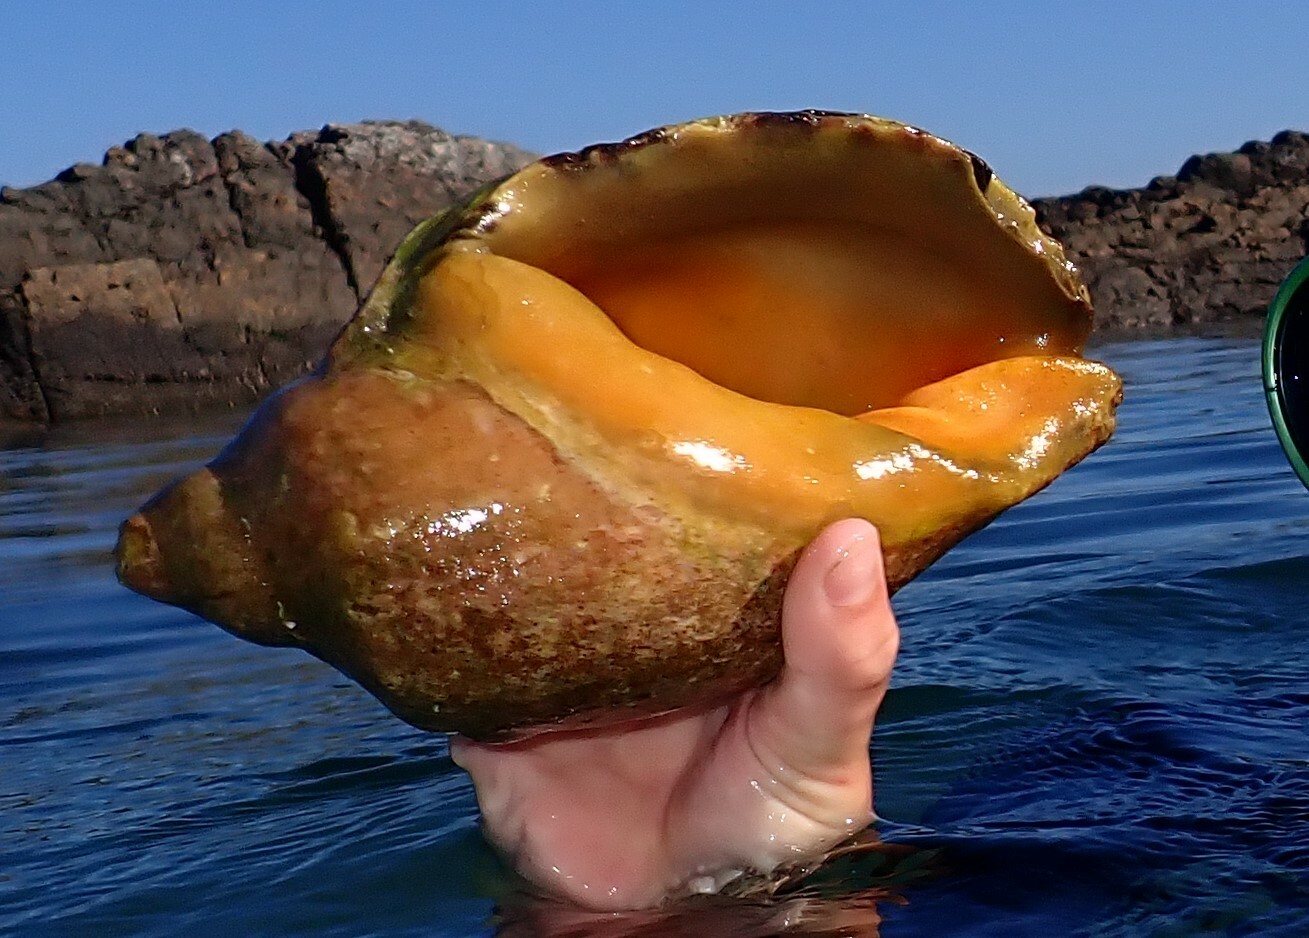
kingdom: Animalia
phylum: Mollusca
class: Gastropoda
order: Neogastropoda
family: Volutidae
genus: Cymbiola
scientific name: Cymbiola magnifica
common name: Magnificent volute
